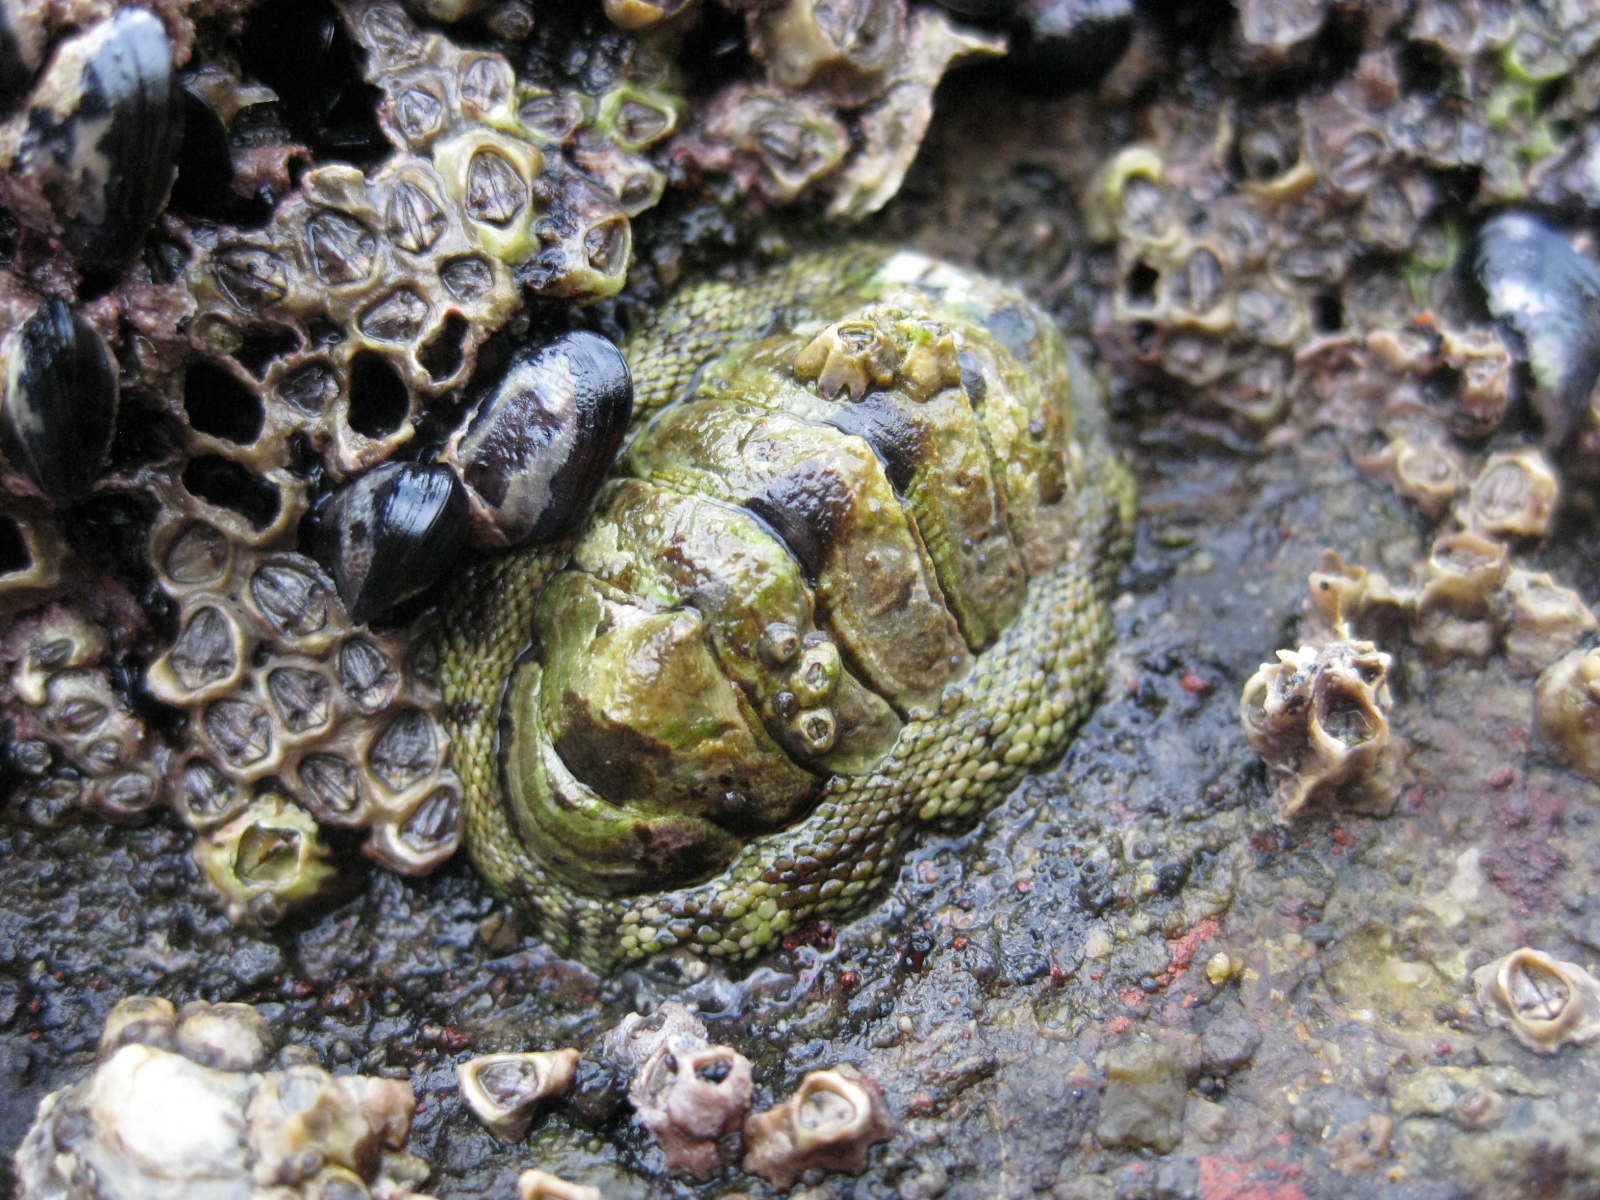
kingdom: Animalia
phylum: Mollusca
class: Polyplacophora
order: Chitonida
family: Chitonidae
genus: Sypharochiton
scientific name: Sypharochiton pelliserpentis
